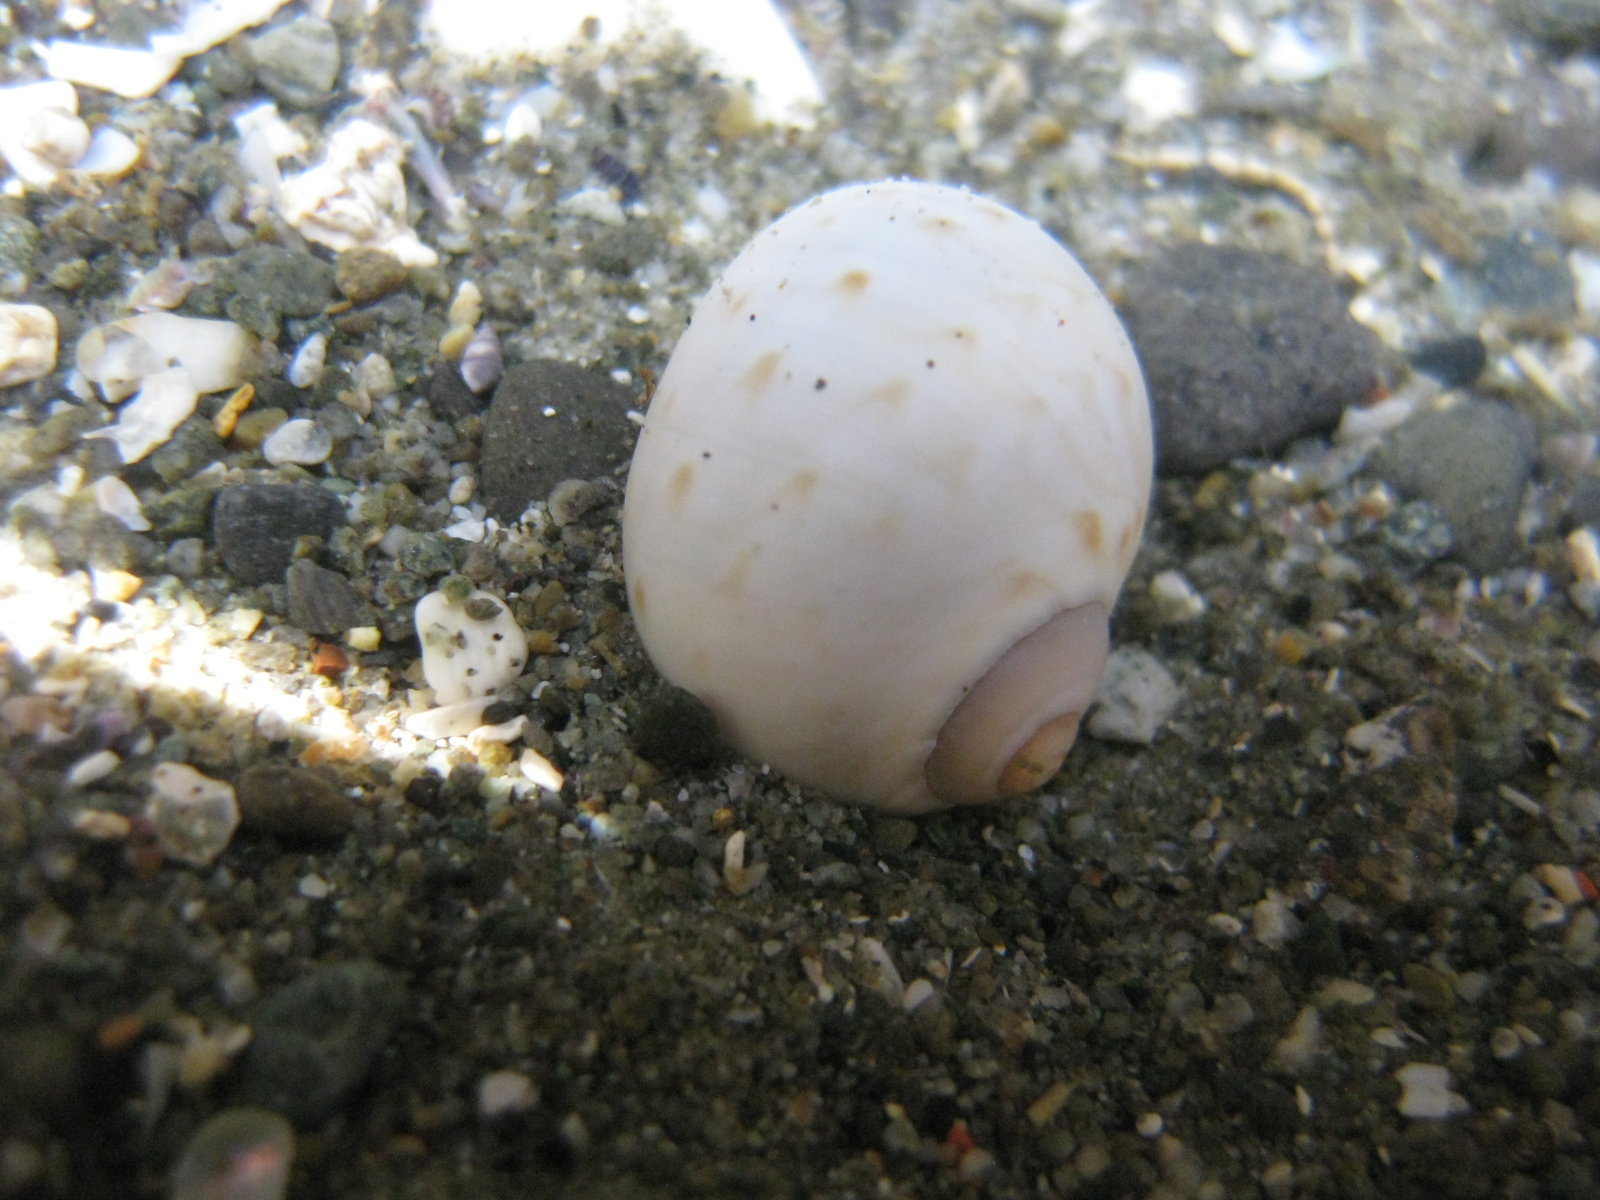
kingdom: Animalia
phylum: Mollusca
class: Gastropoda
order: Littorinimorpha
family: Naticidae
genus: Tanea
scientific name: Tanea zelandica
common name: New zealand moonsnail
